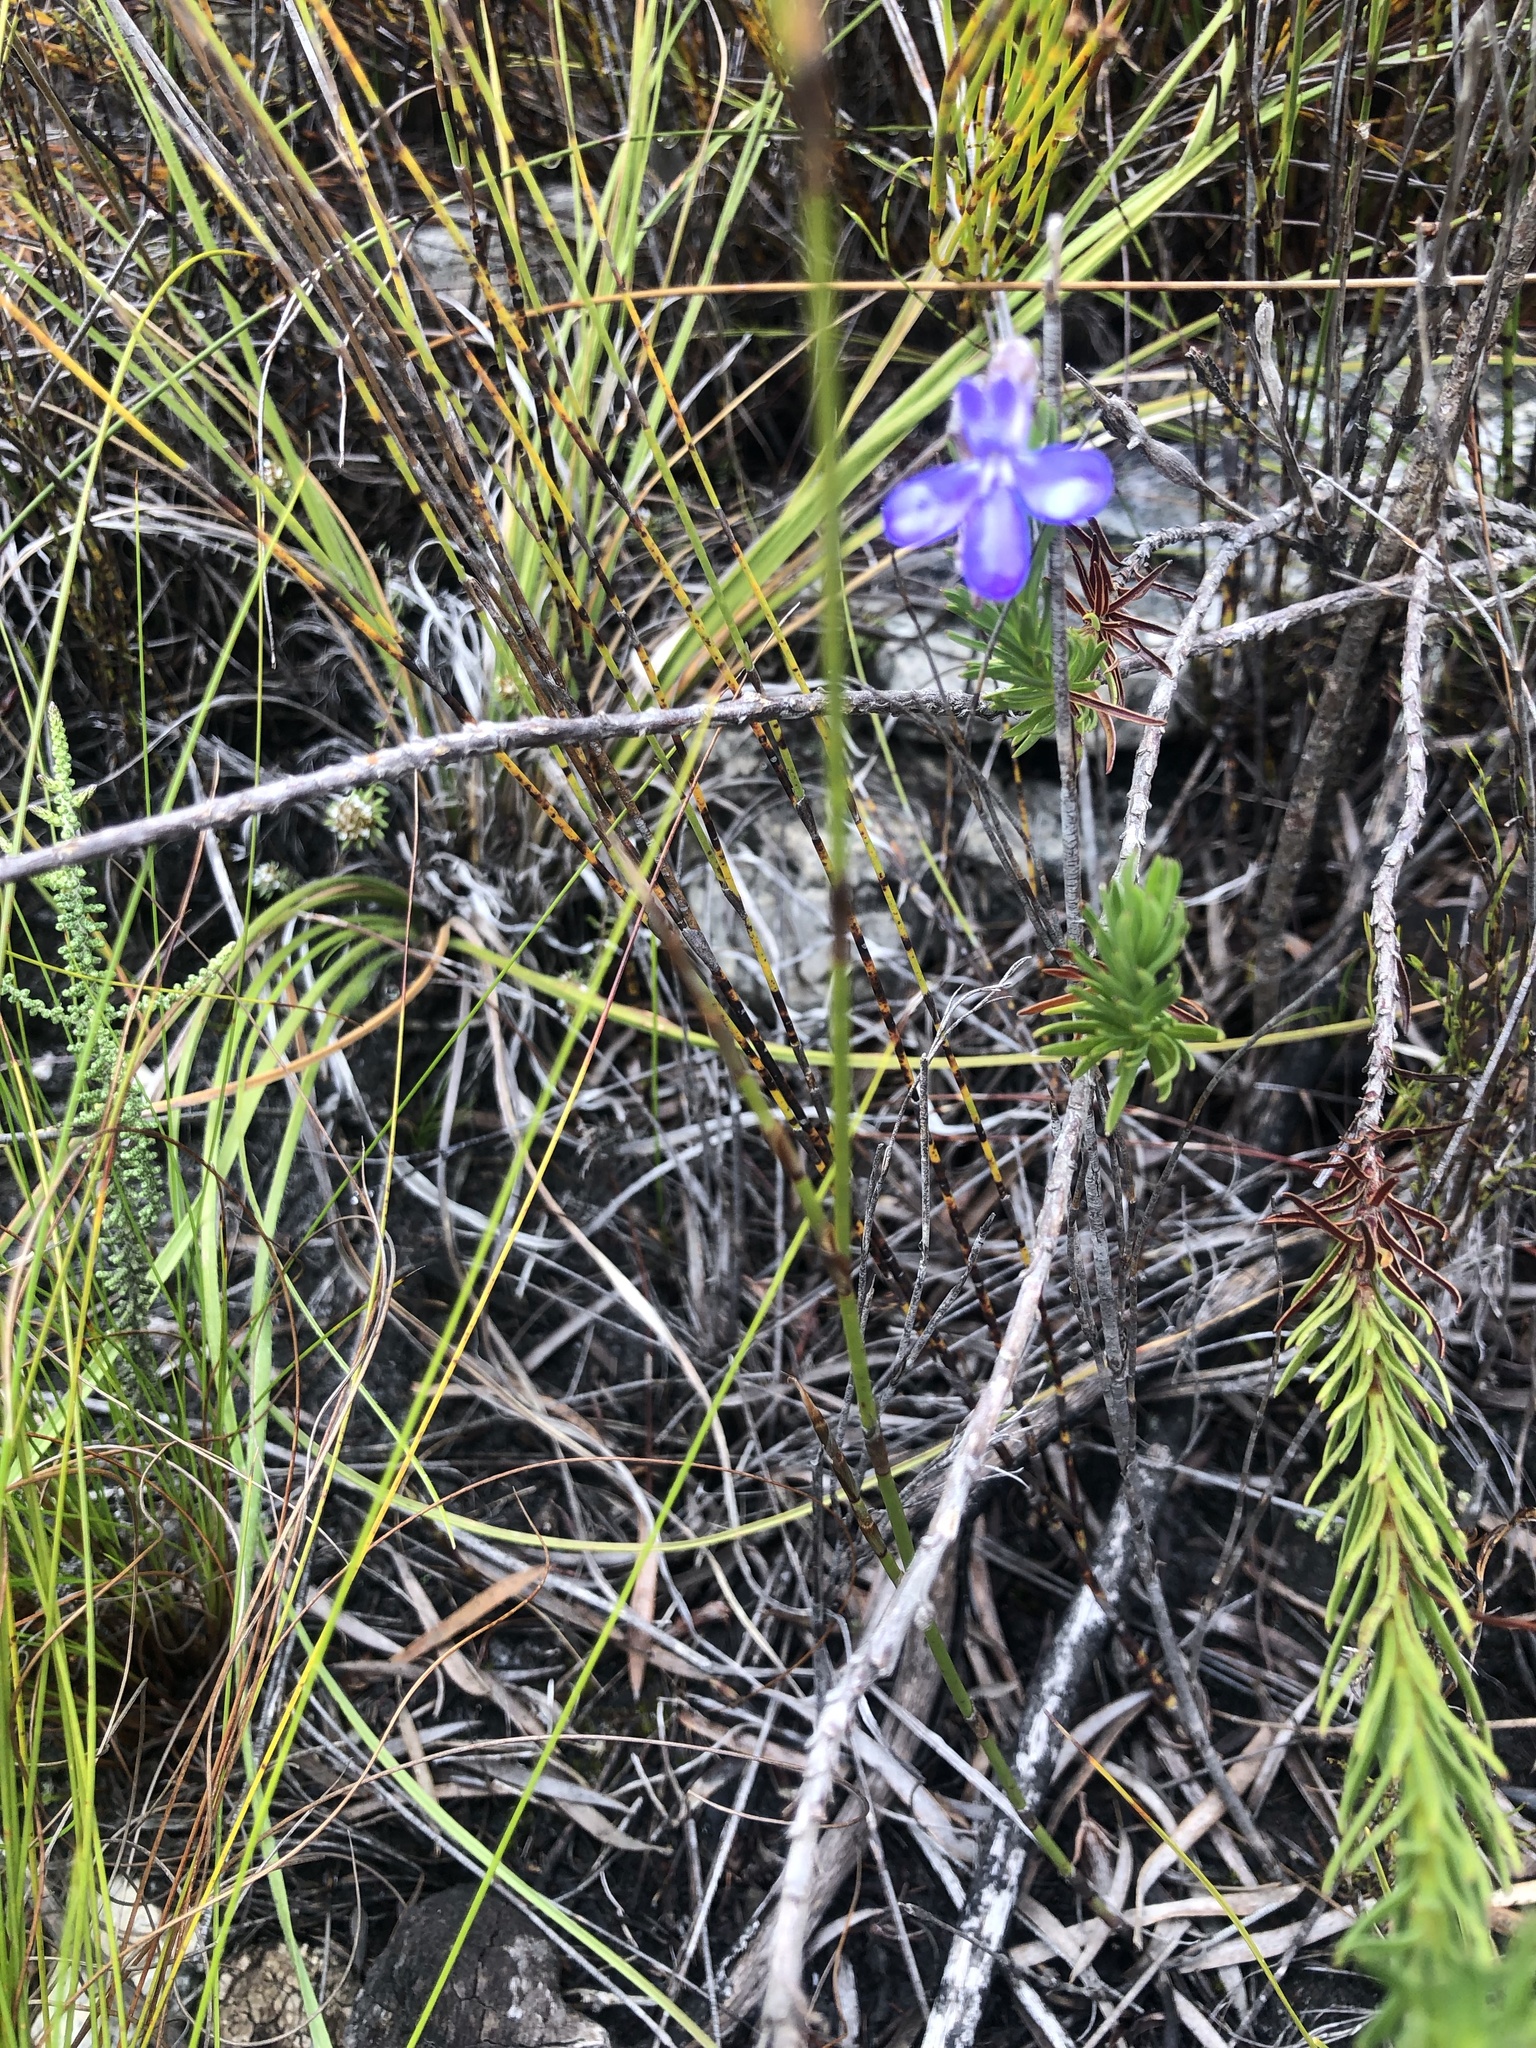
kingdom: Plantae
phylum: Tracheophyta
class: Magnoliopsida
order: Asterales
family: Campanulaceae
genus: Lobelia
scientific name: Lobelia pinifolia
